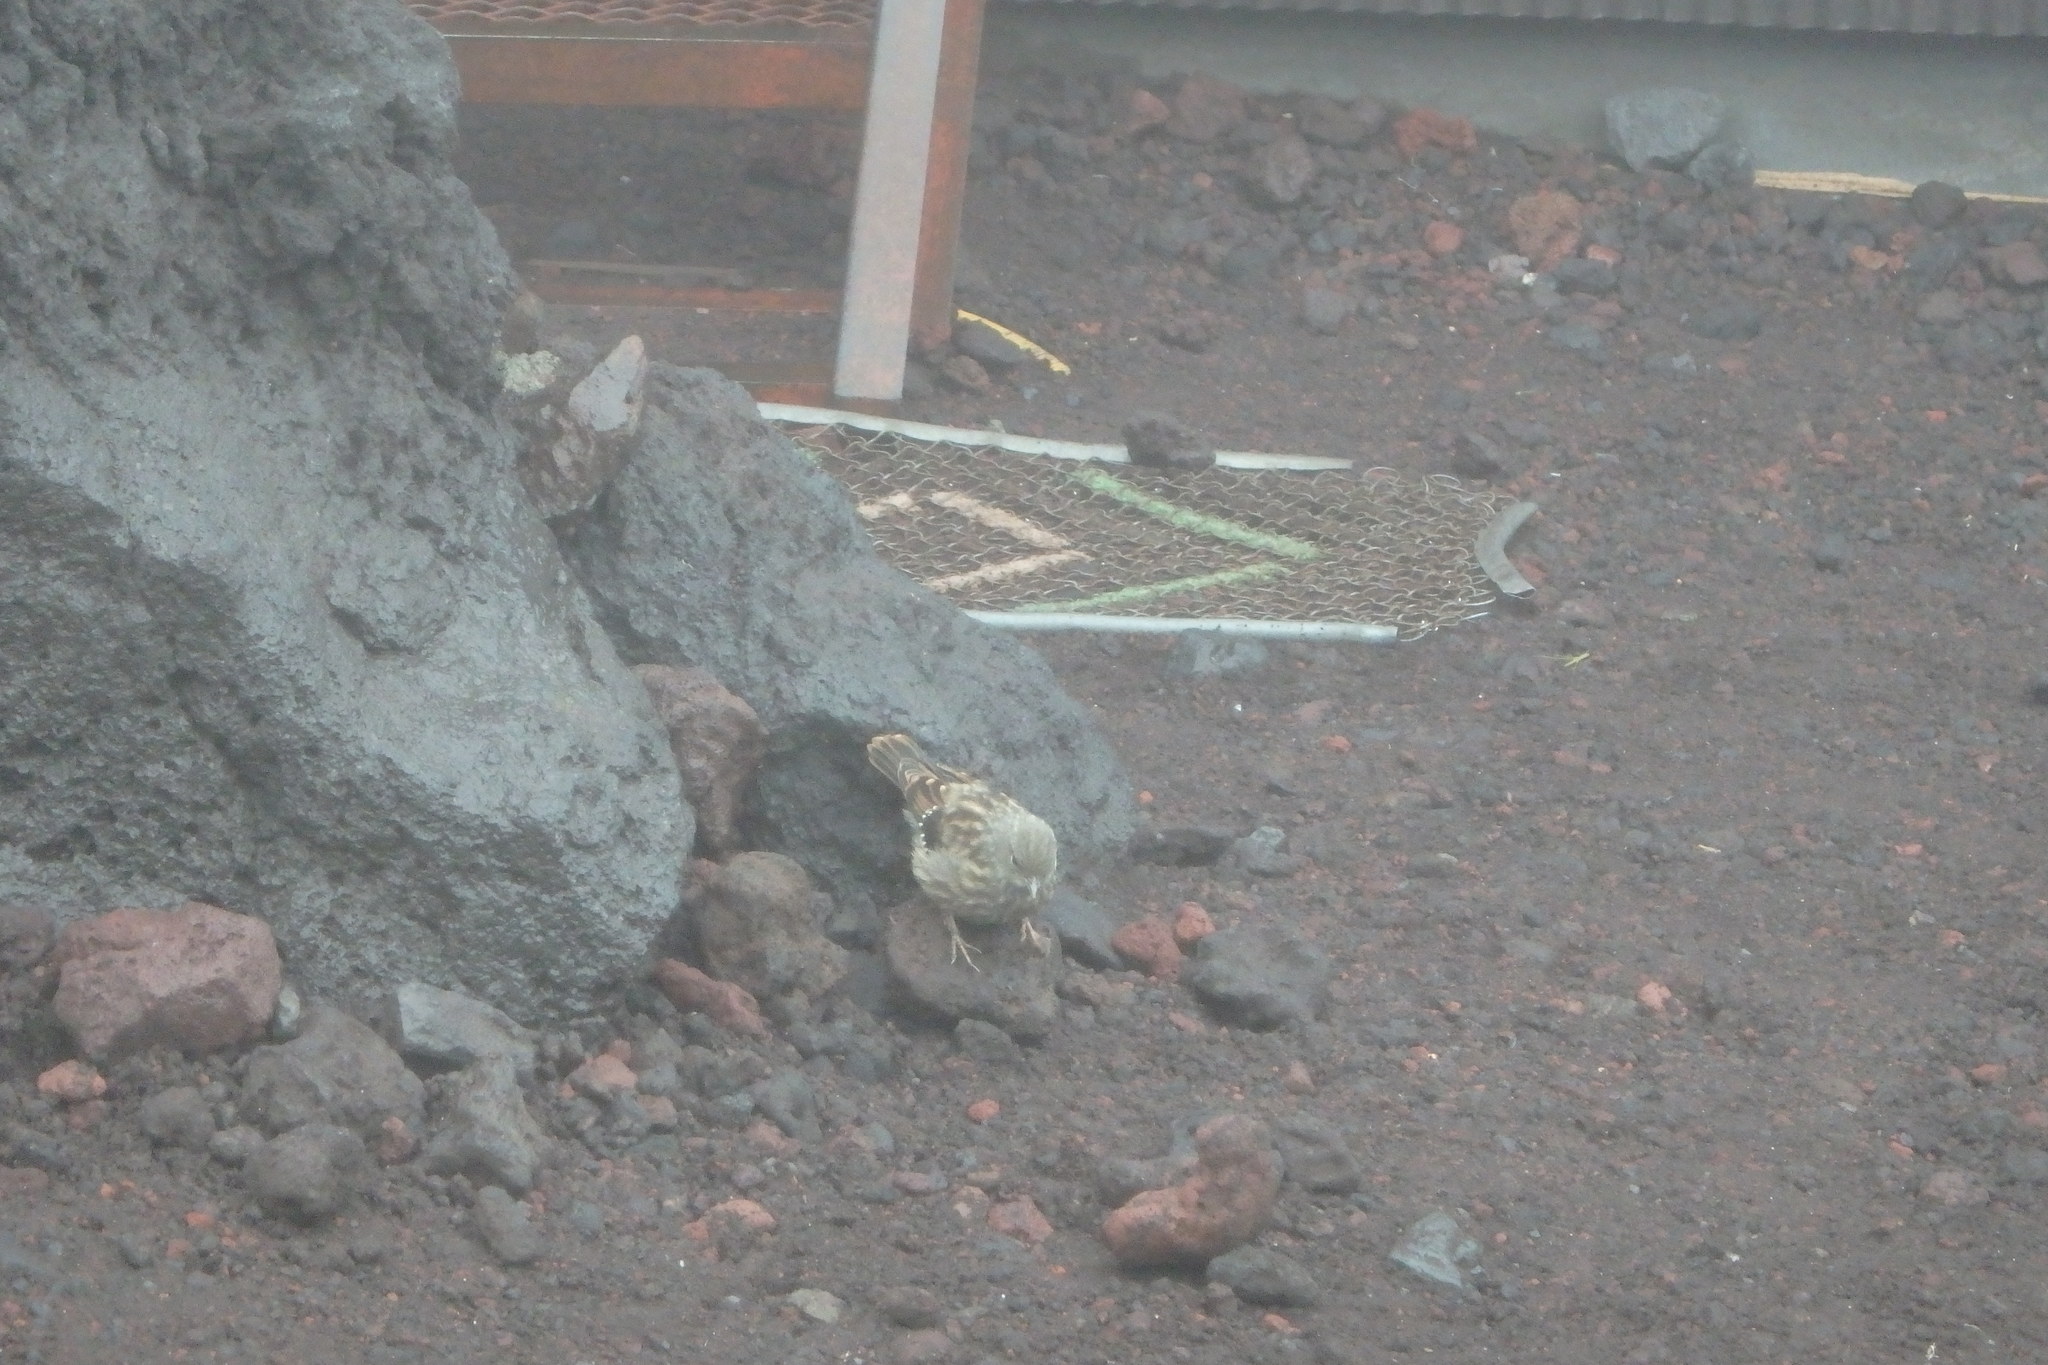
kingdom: Animalia
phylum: Chordata
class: Aves
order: Passeriformes
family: Prunellidae
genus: Prunella
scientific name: Prunella collaris
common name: Alpine accentor
